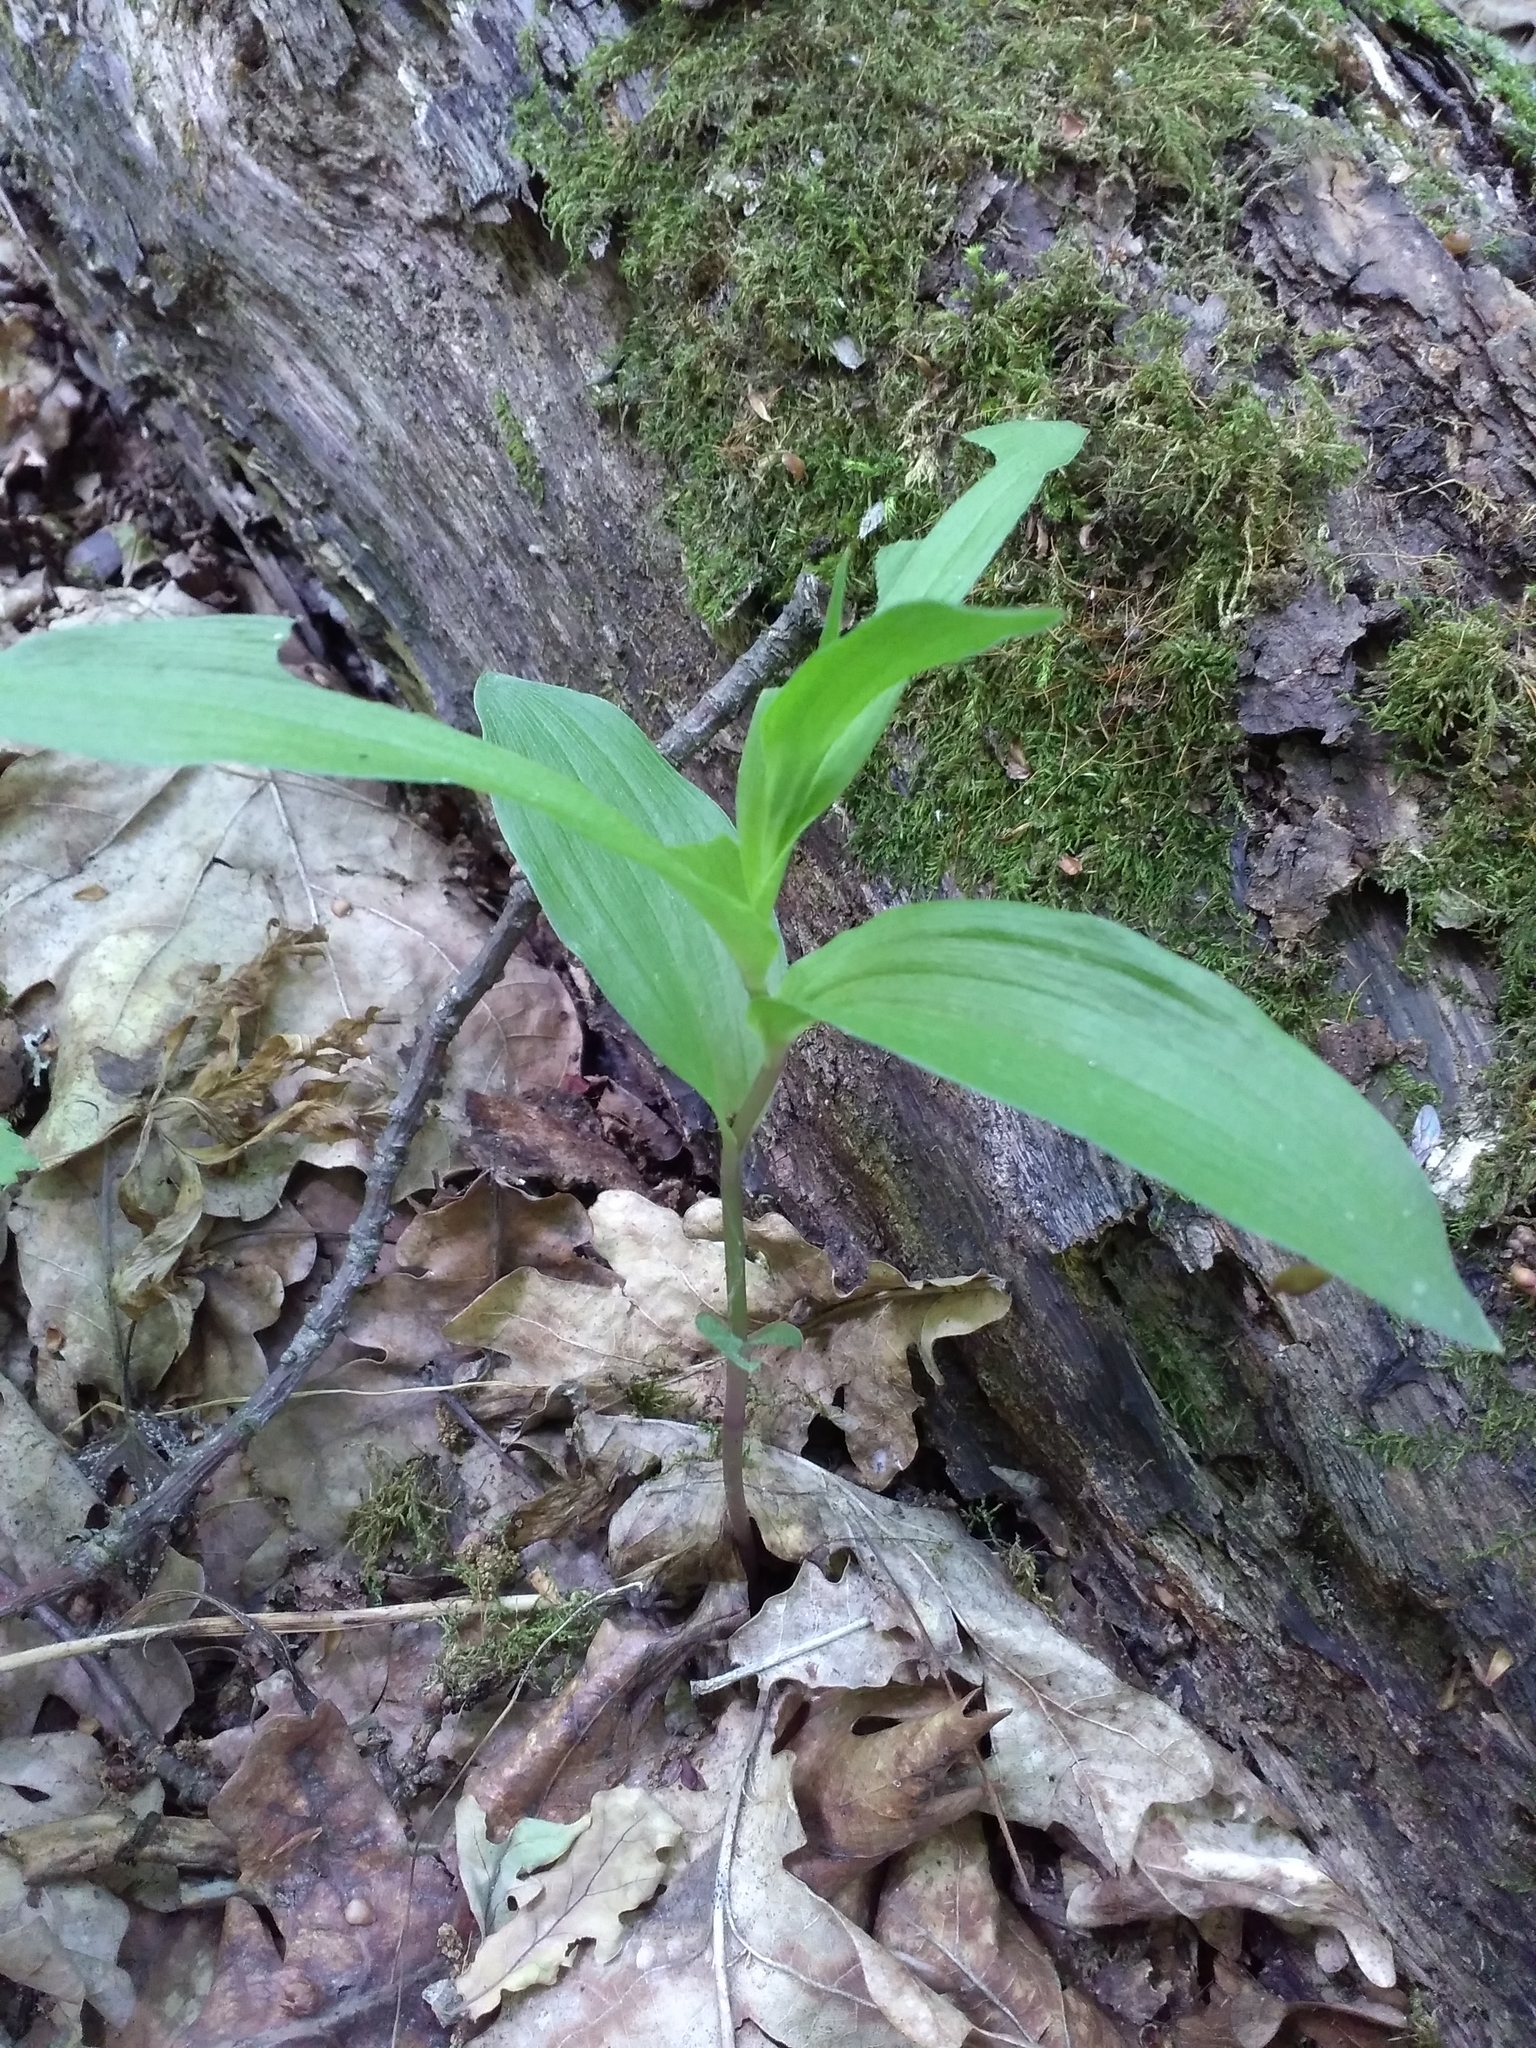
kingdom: Plantae
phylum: Tracheophyta
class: Liliopsida
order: Asparagales
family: Orchidaceae
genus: Epipactis
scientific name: Epipactis helleborine
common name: Broad-leaved helleborine
